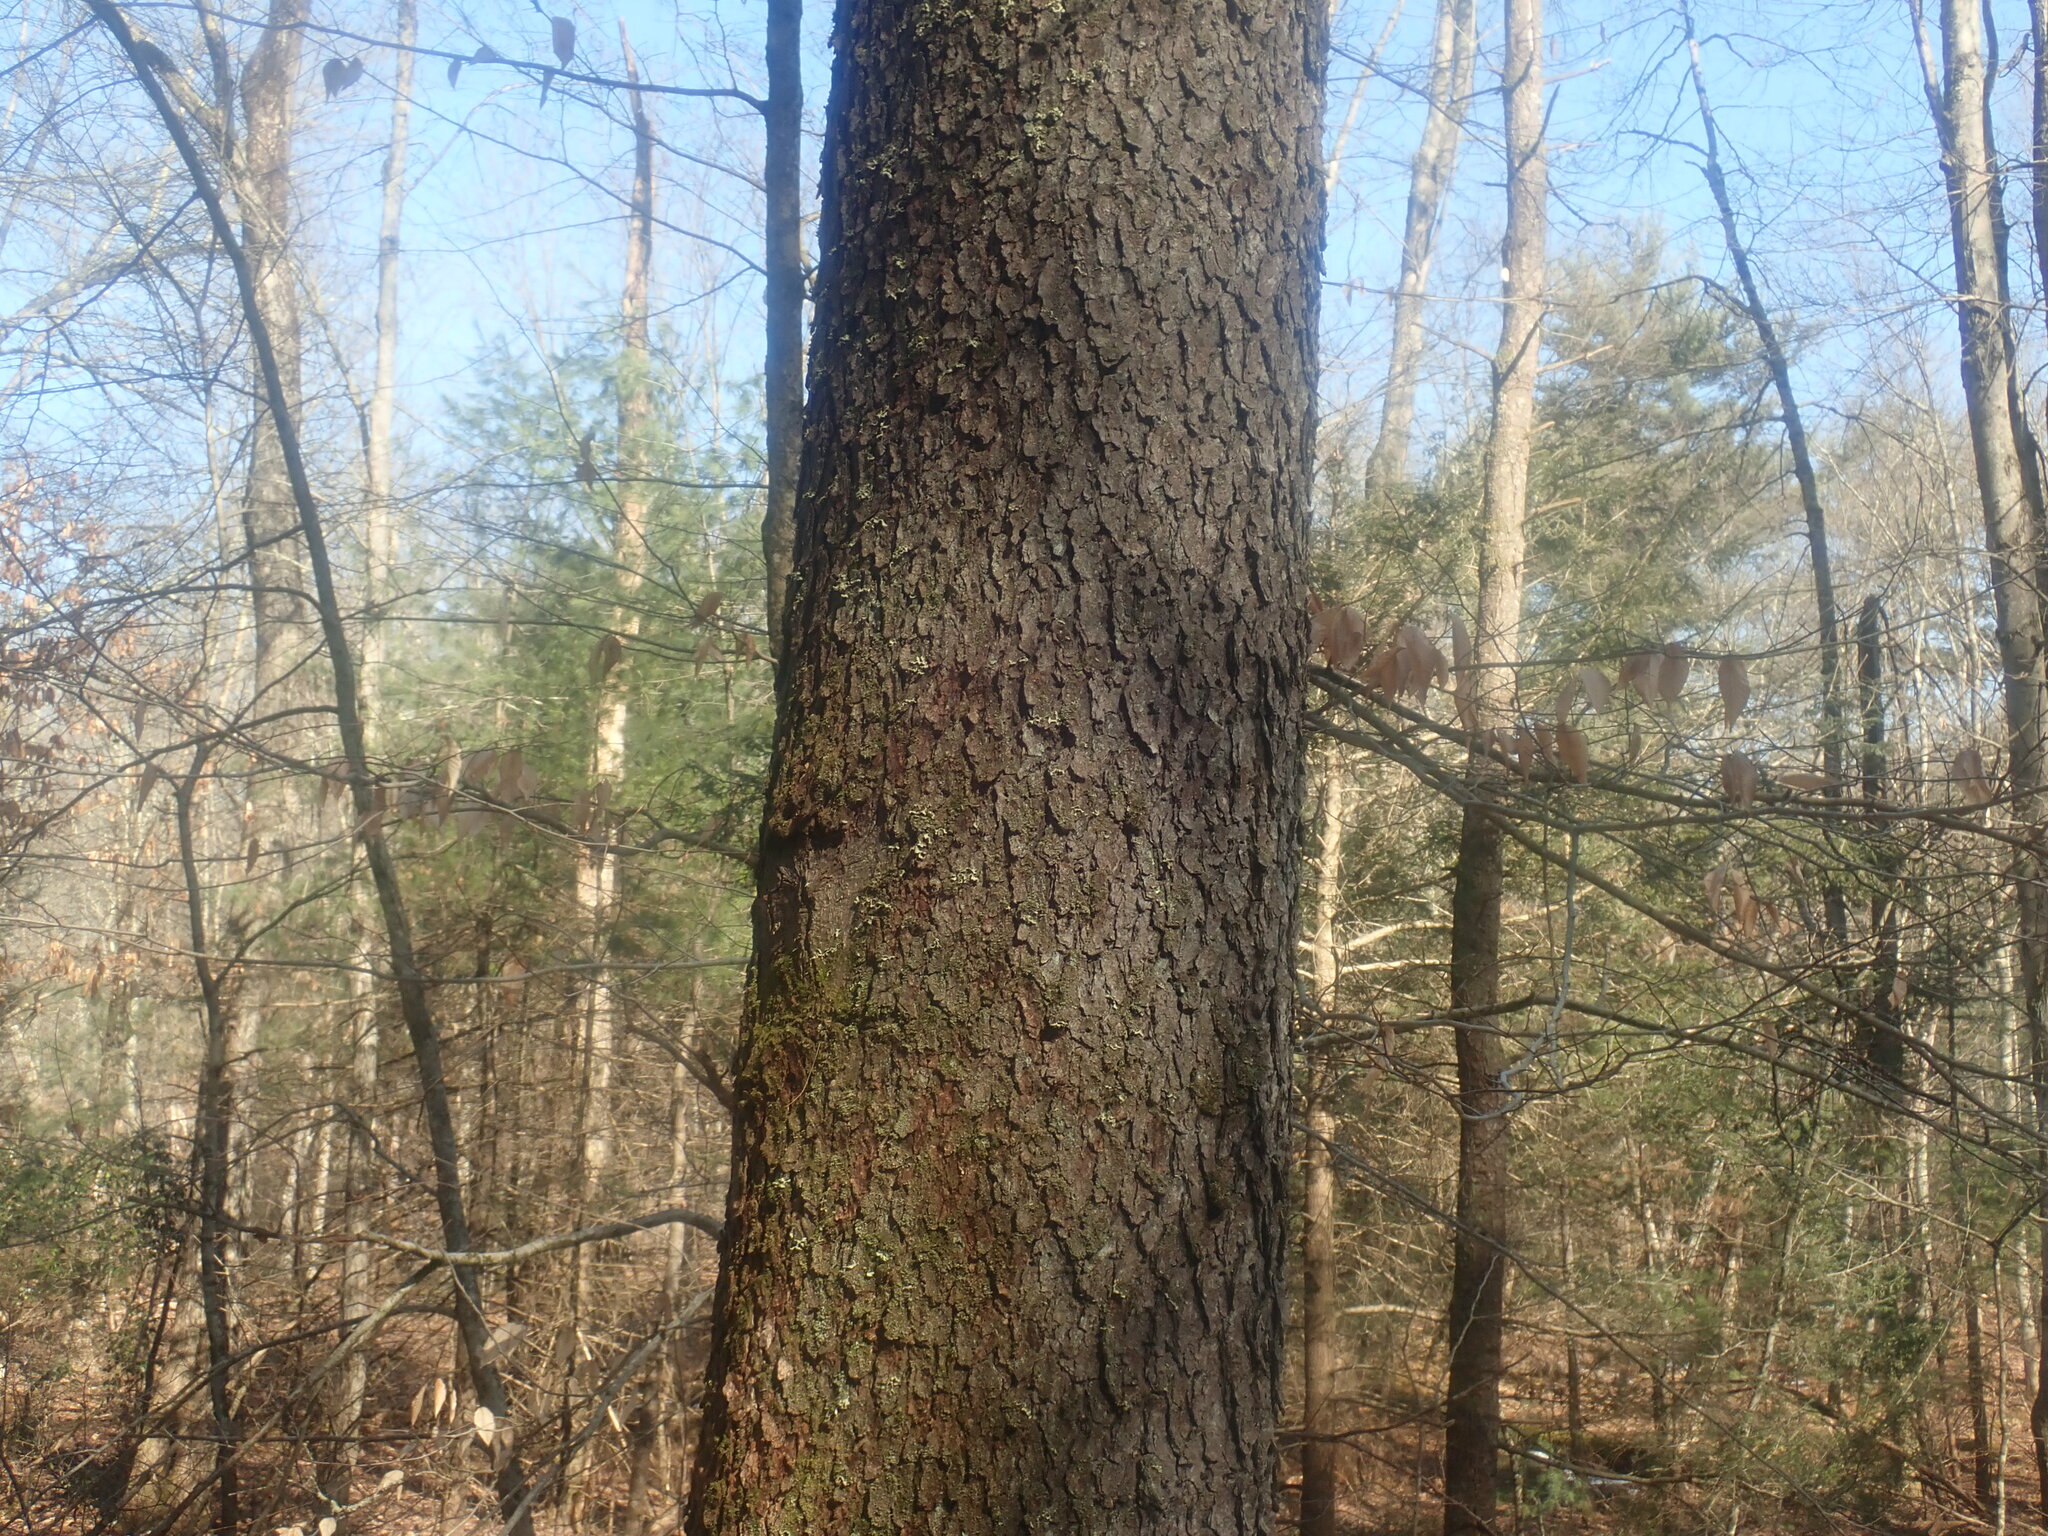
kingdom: Plantae
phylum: Tracheophyta
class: Magnoliopsida
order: Rosales
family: Rosaceae
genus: Prunus
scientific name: Prunus serotina
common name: Black cherry
